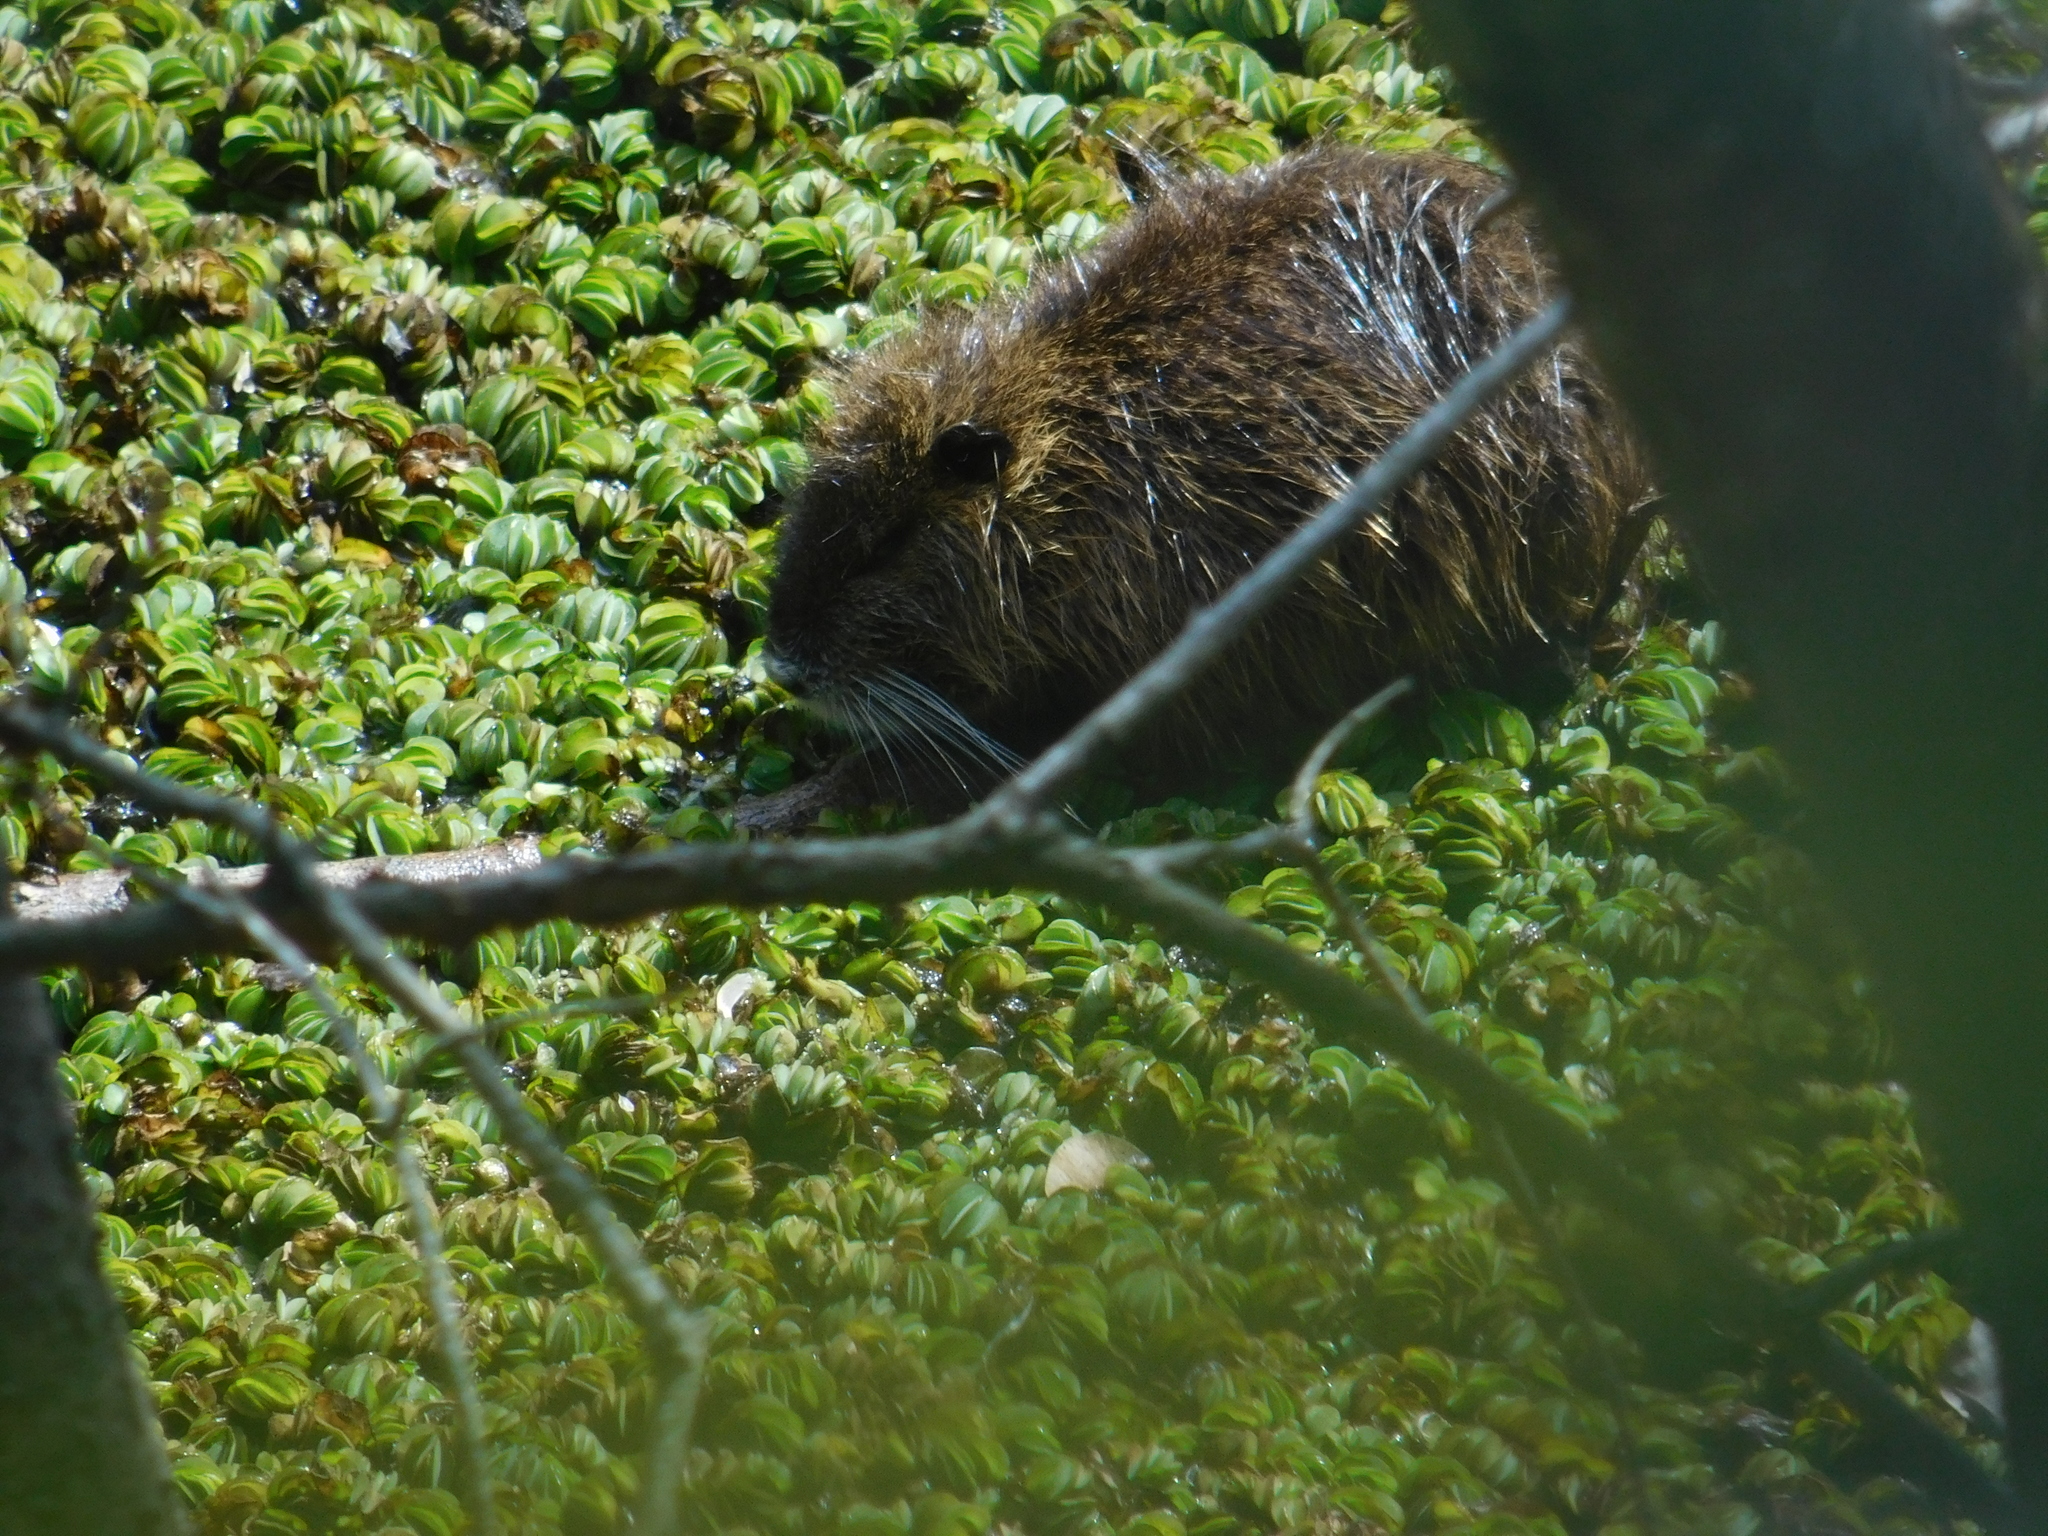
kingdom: Animalia
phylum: Chordata
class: Mammalia
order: Rodentia
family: Myocastoridae
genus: Myocastor
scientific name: Myocastor coypus
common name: Coypu
